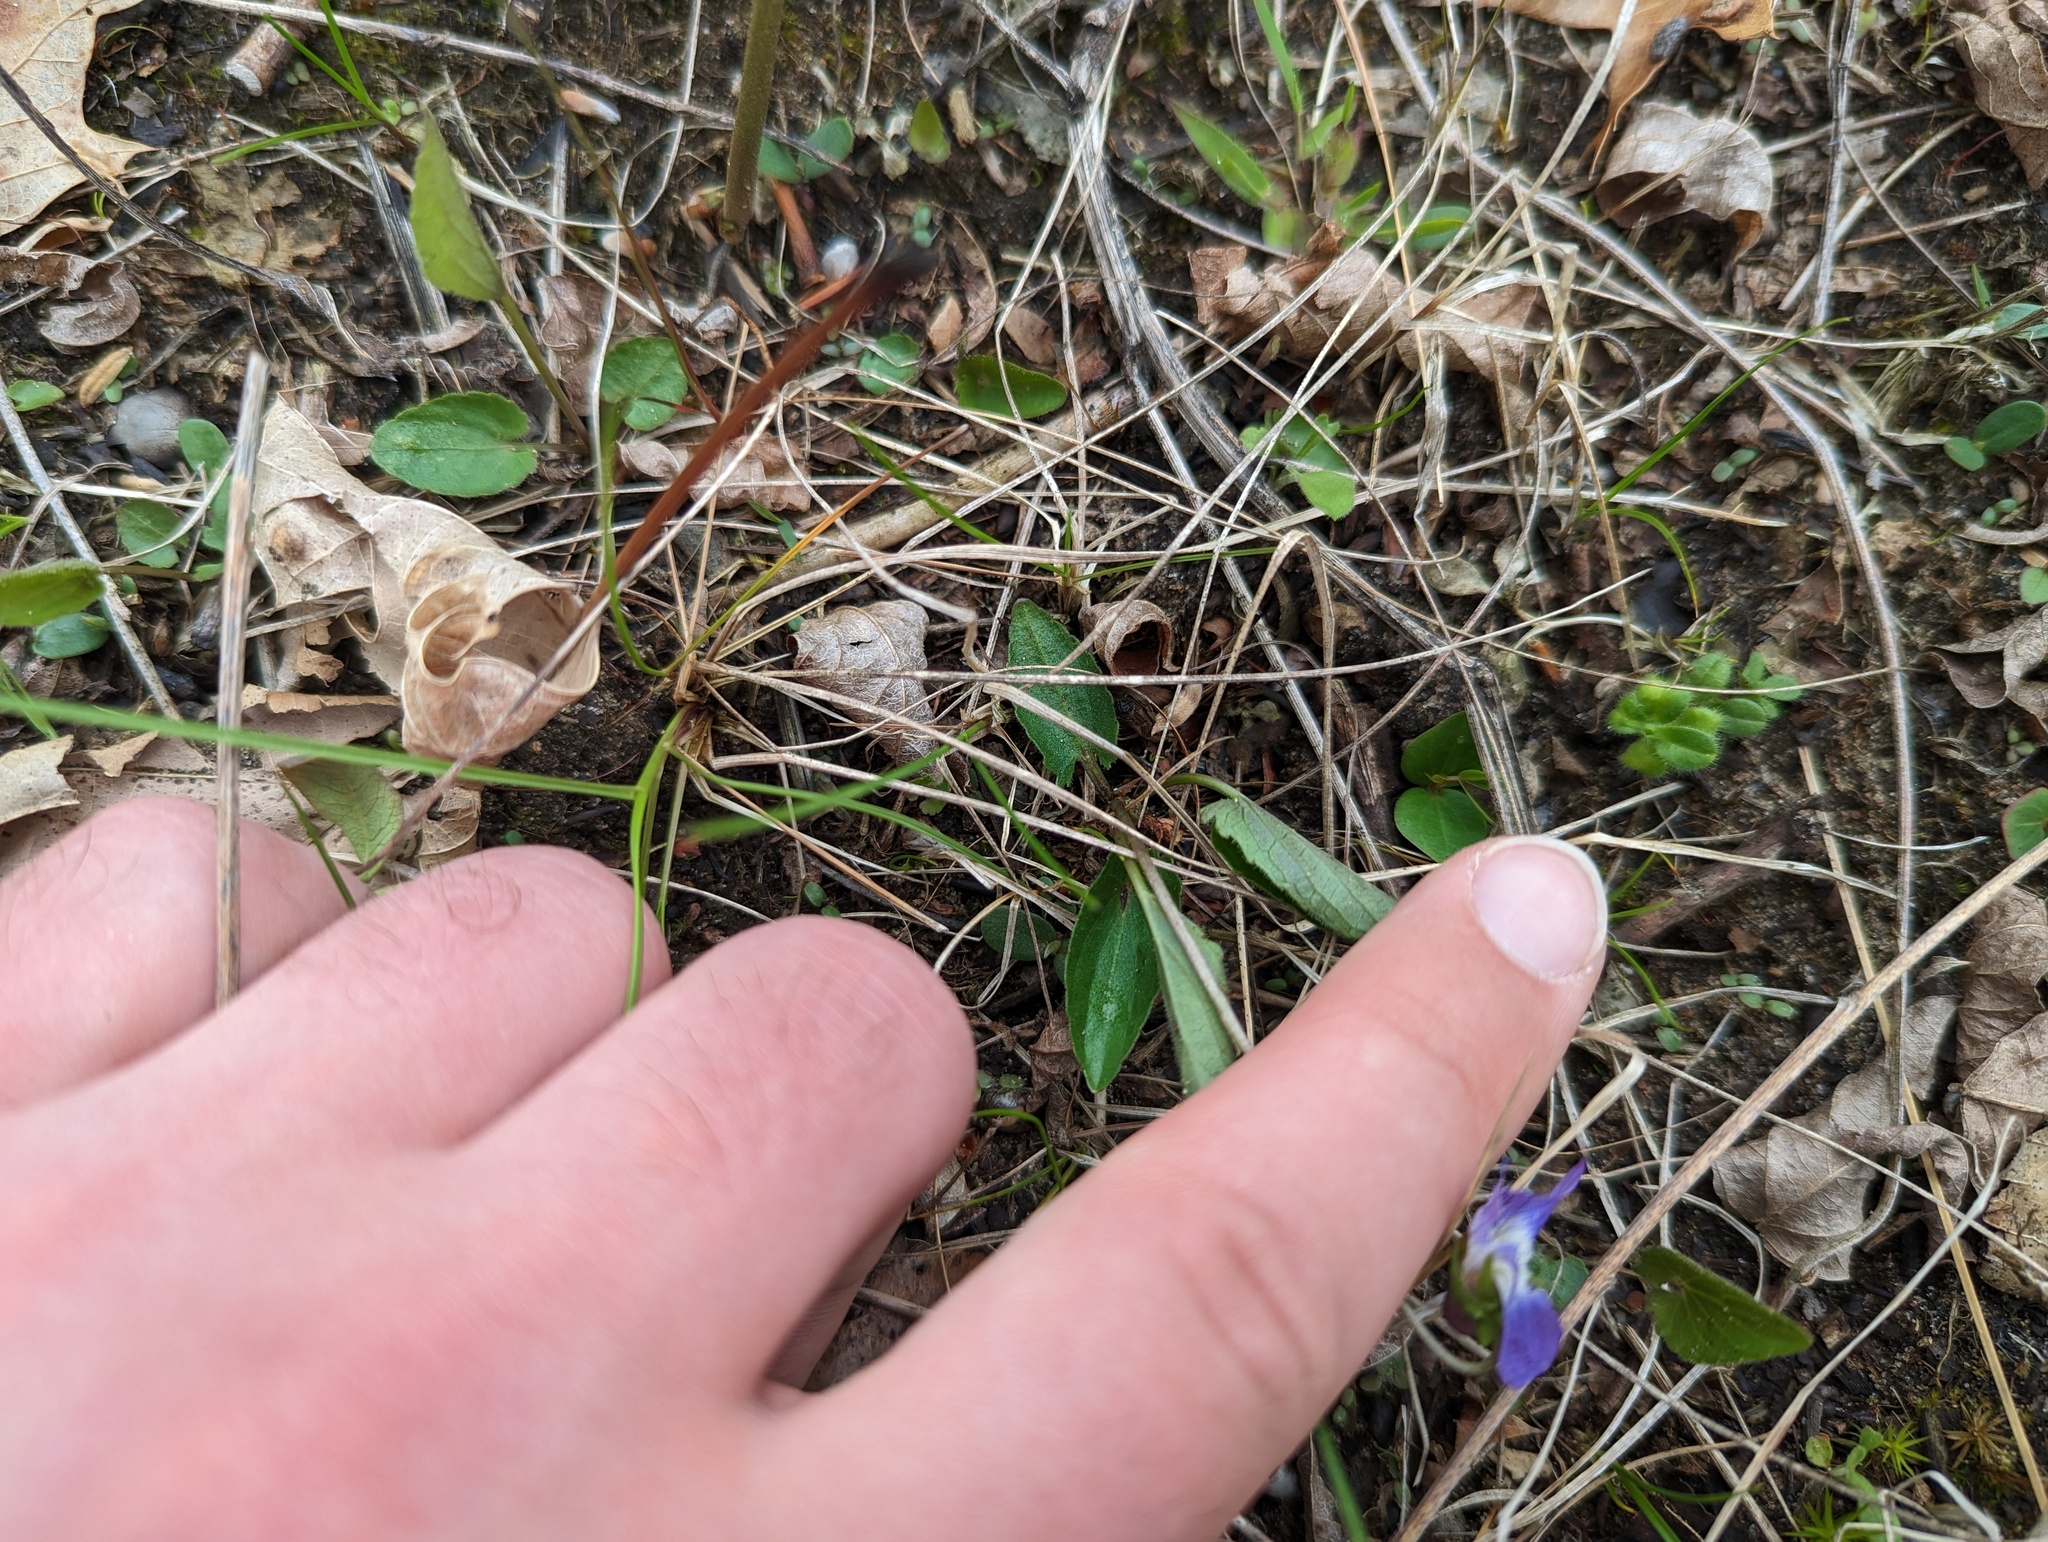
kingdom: Plantae
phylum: Tracheophyta
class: Magnoliopsida
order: Malpighiales
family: Violaceae
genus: Viola
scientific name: Viola sagittata
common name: Arrowhead violet
